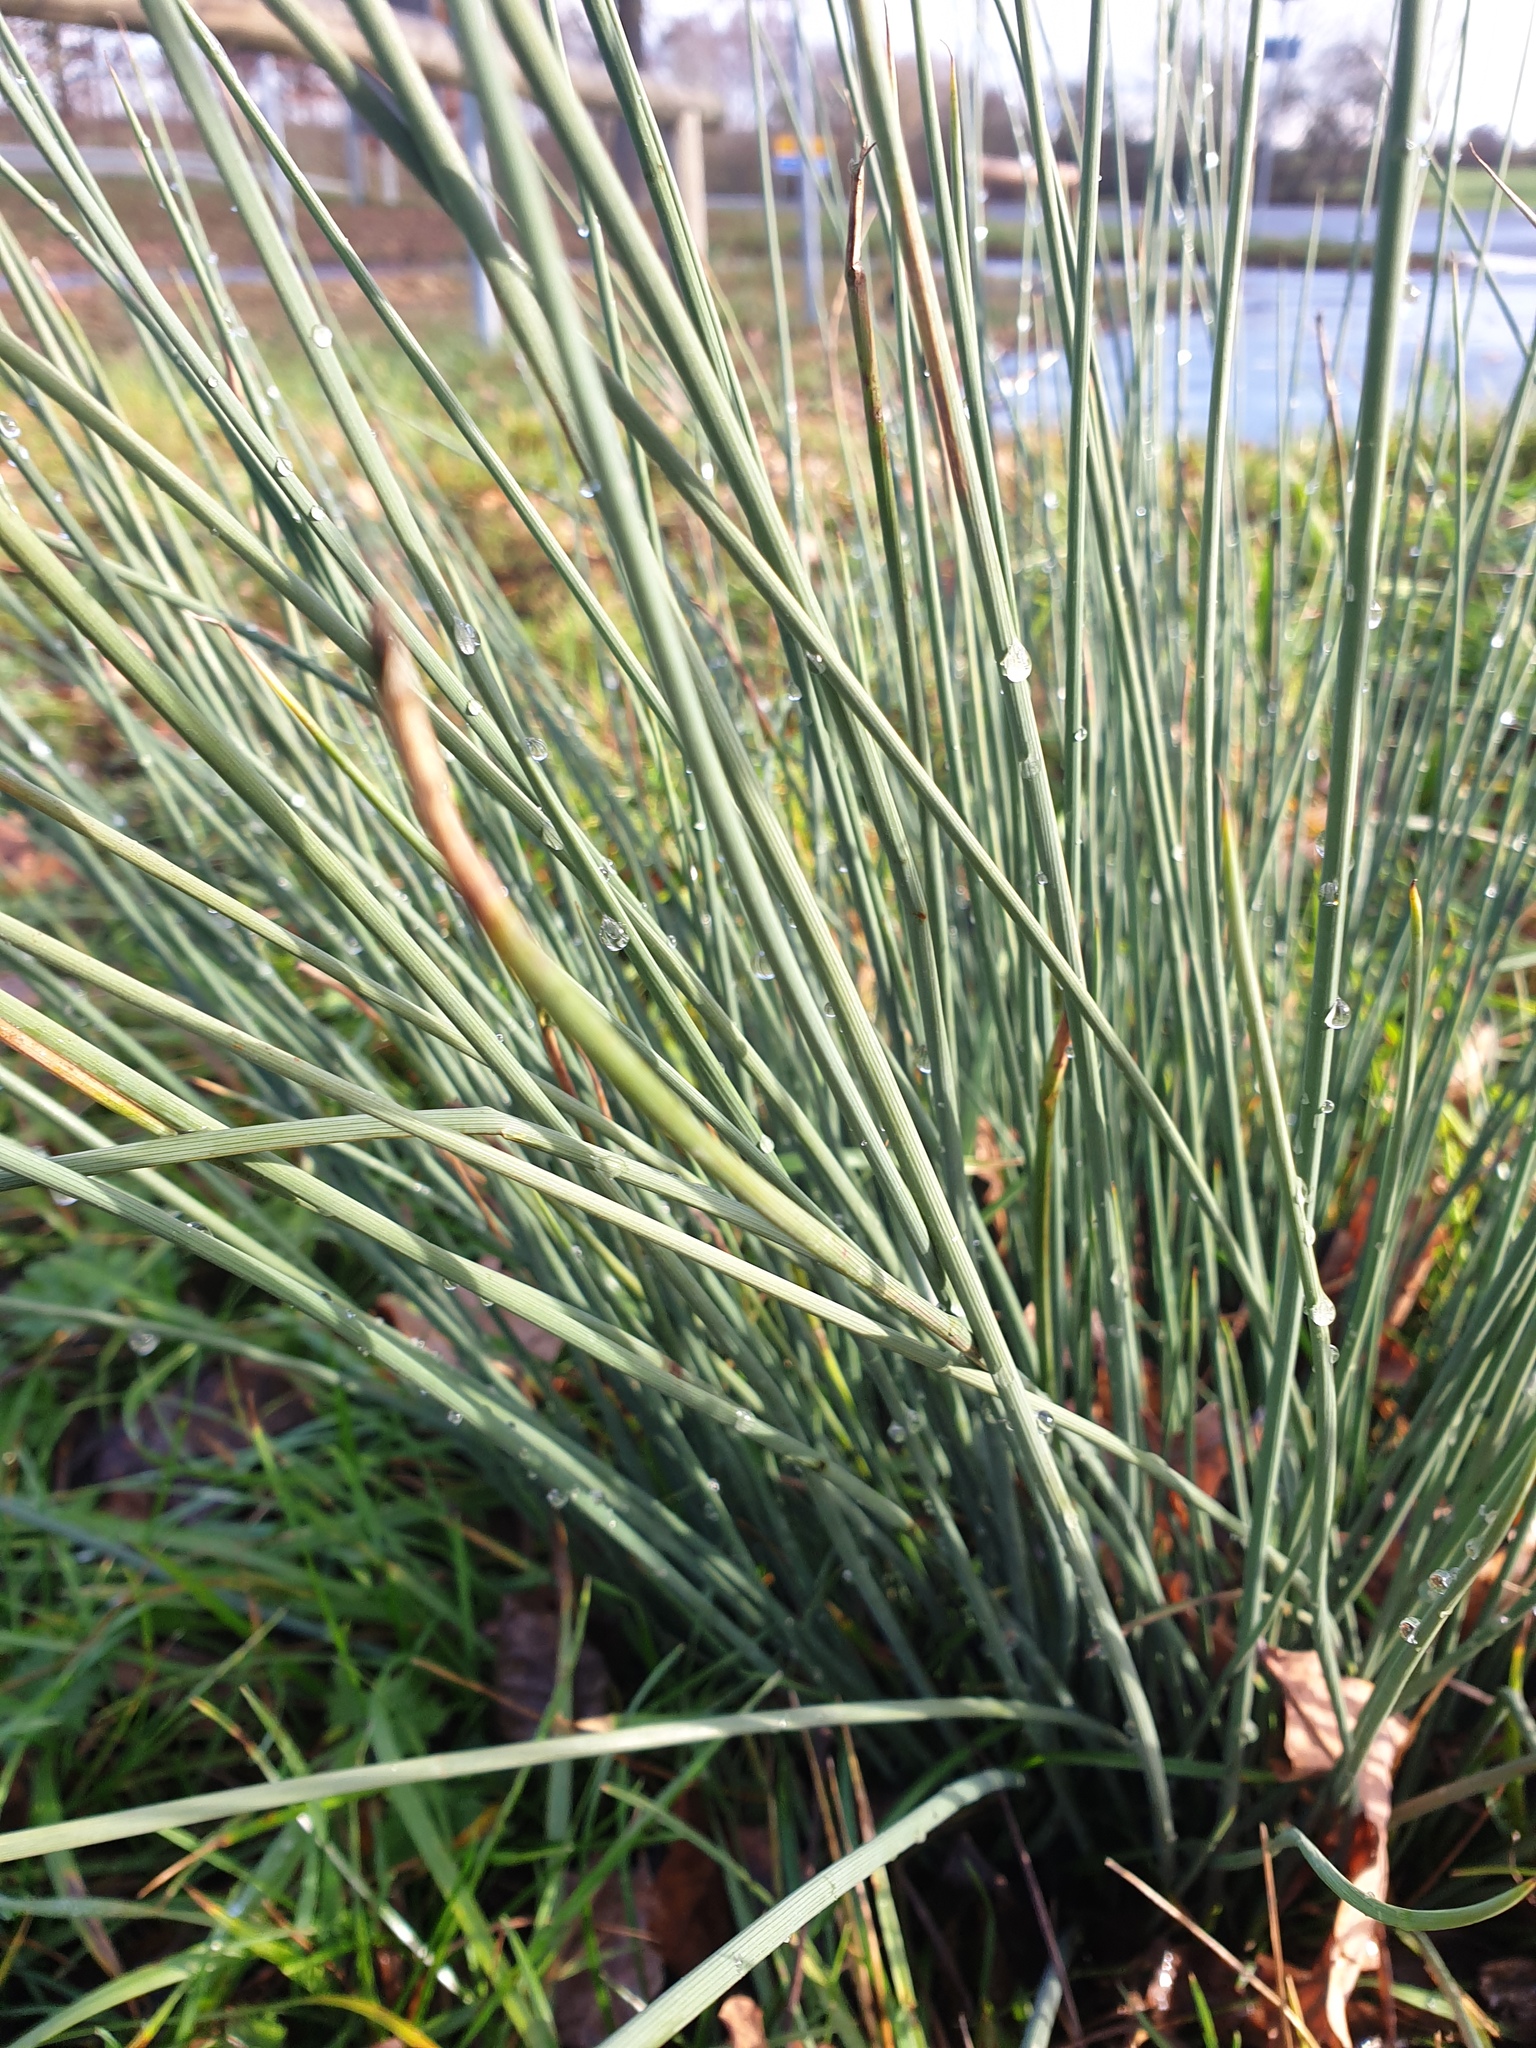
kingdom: Plantae
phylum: Tracheophyta
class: Liliopsida
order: Poales
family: Juncaceae
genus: Juncus
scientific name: Juncus inflexus
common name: Hard rush
